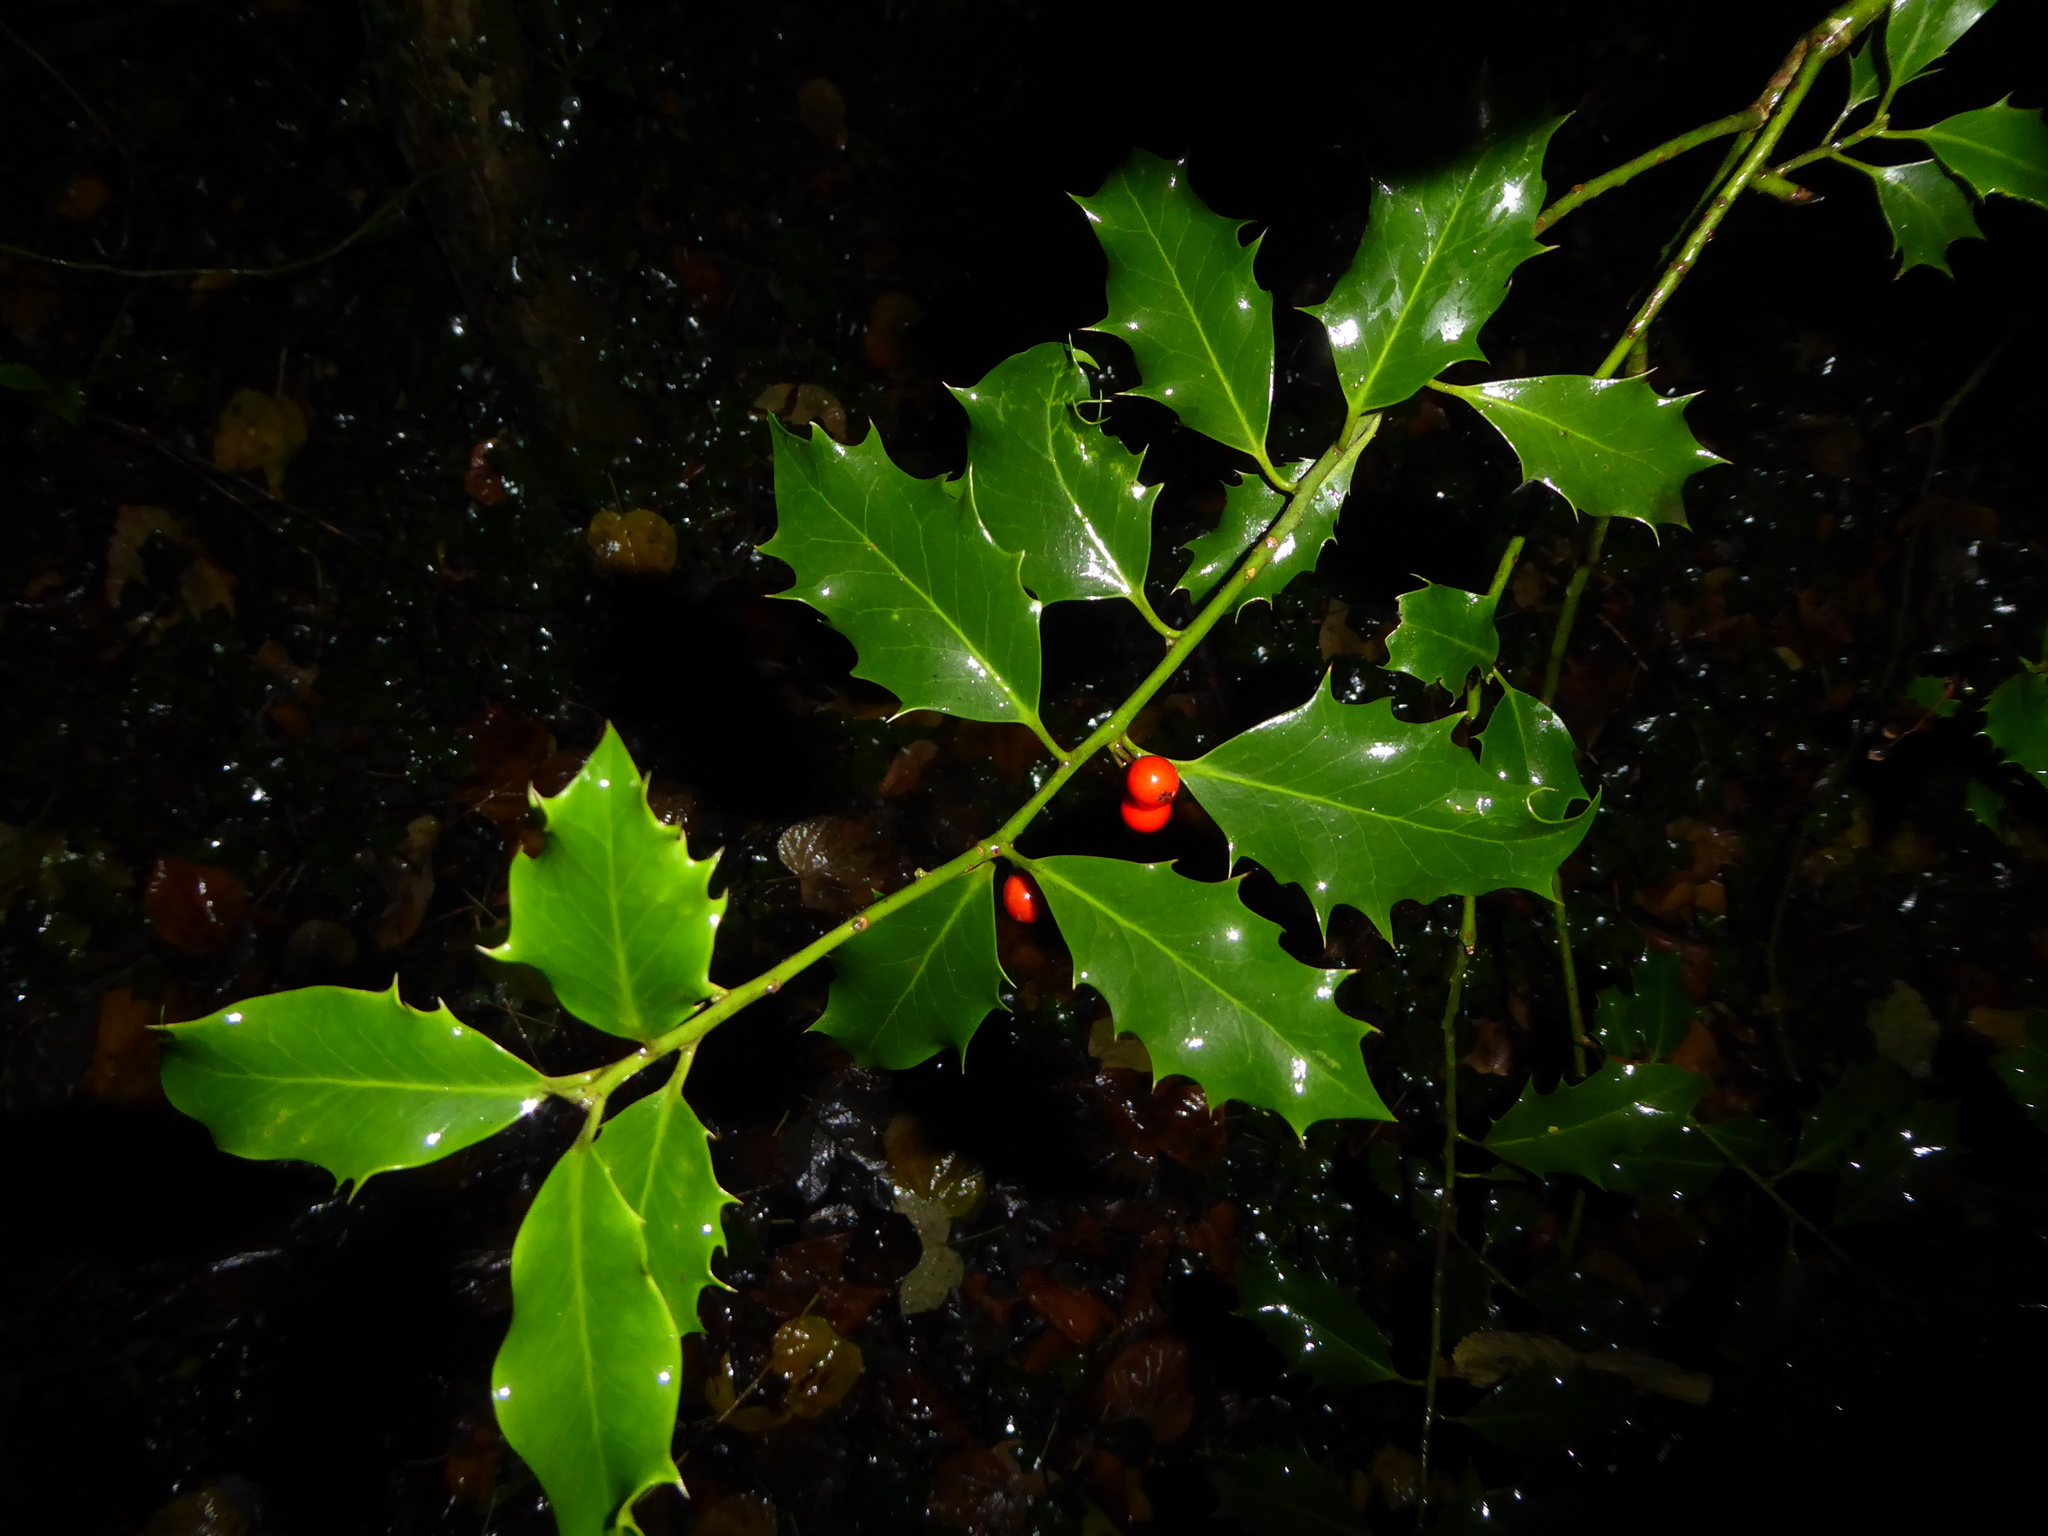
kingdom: Plantae
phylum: Tracheophyta
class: Magnoliopsida
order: Aquifoliales
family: Aquifoliaceae
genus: Ilex
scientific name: Ilex aquifolium
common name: English holly
